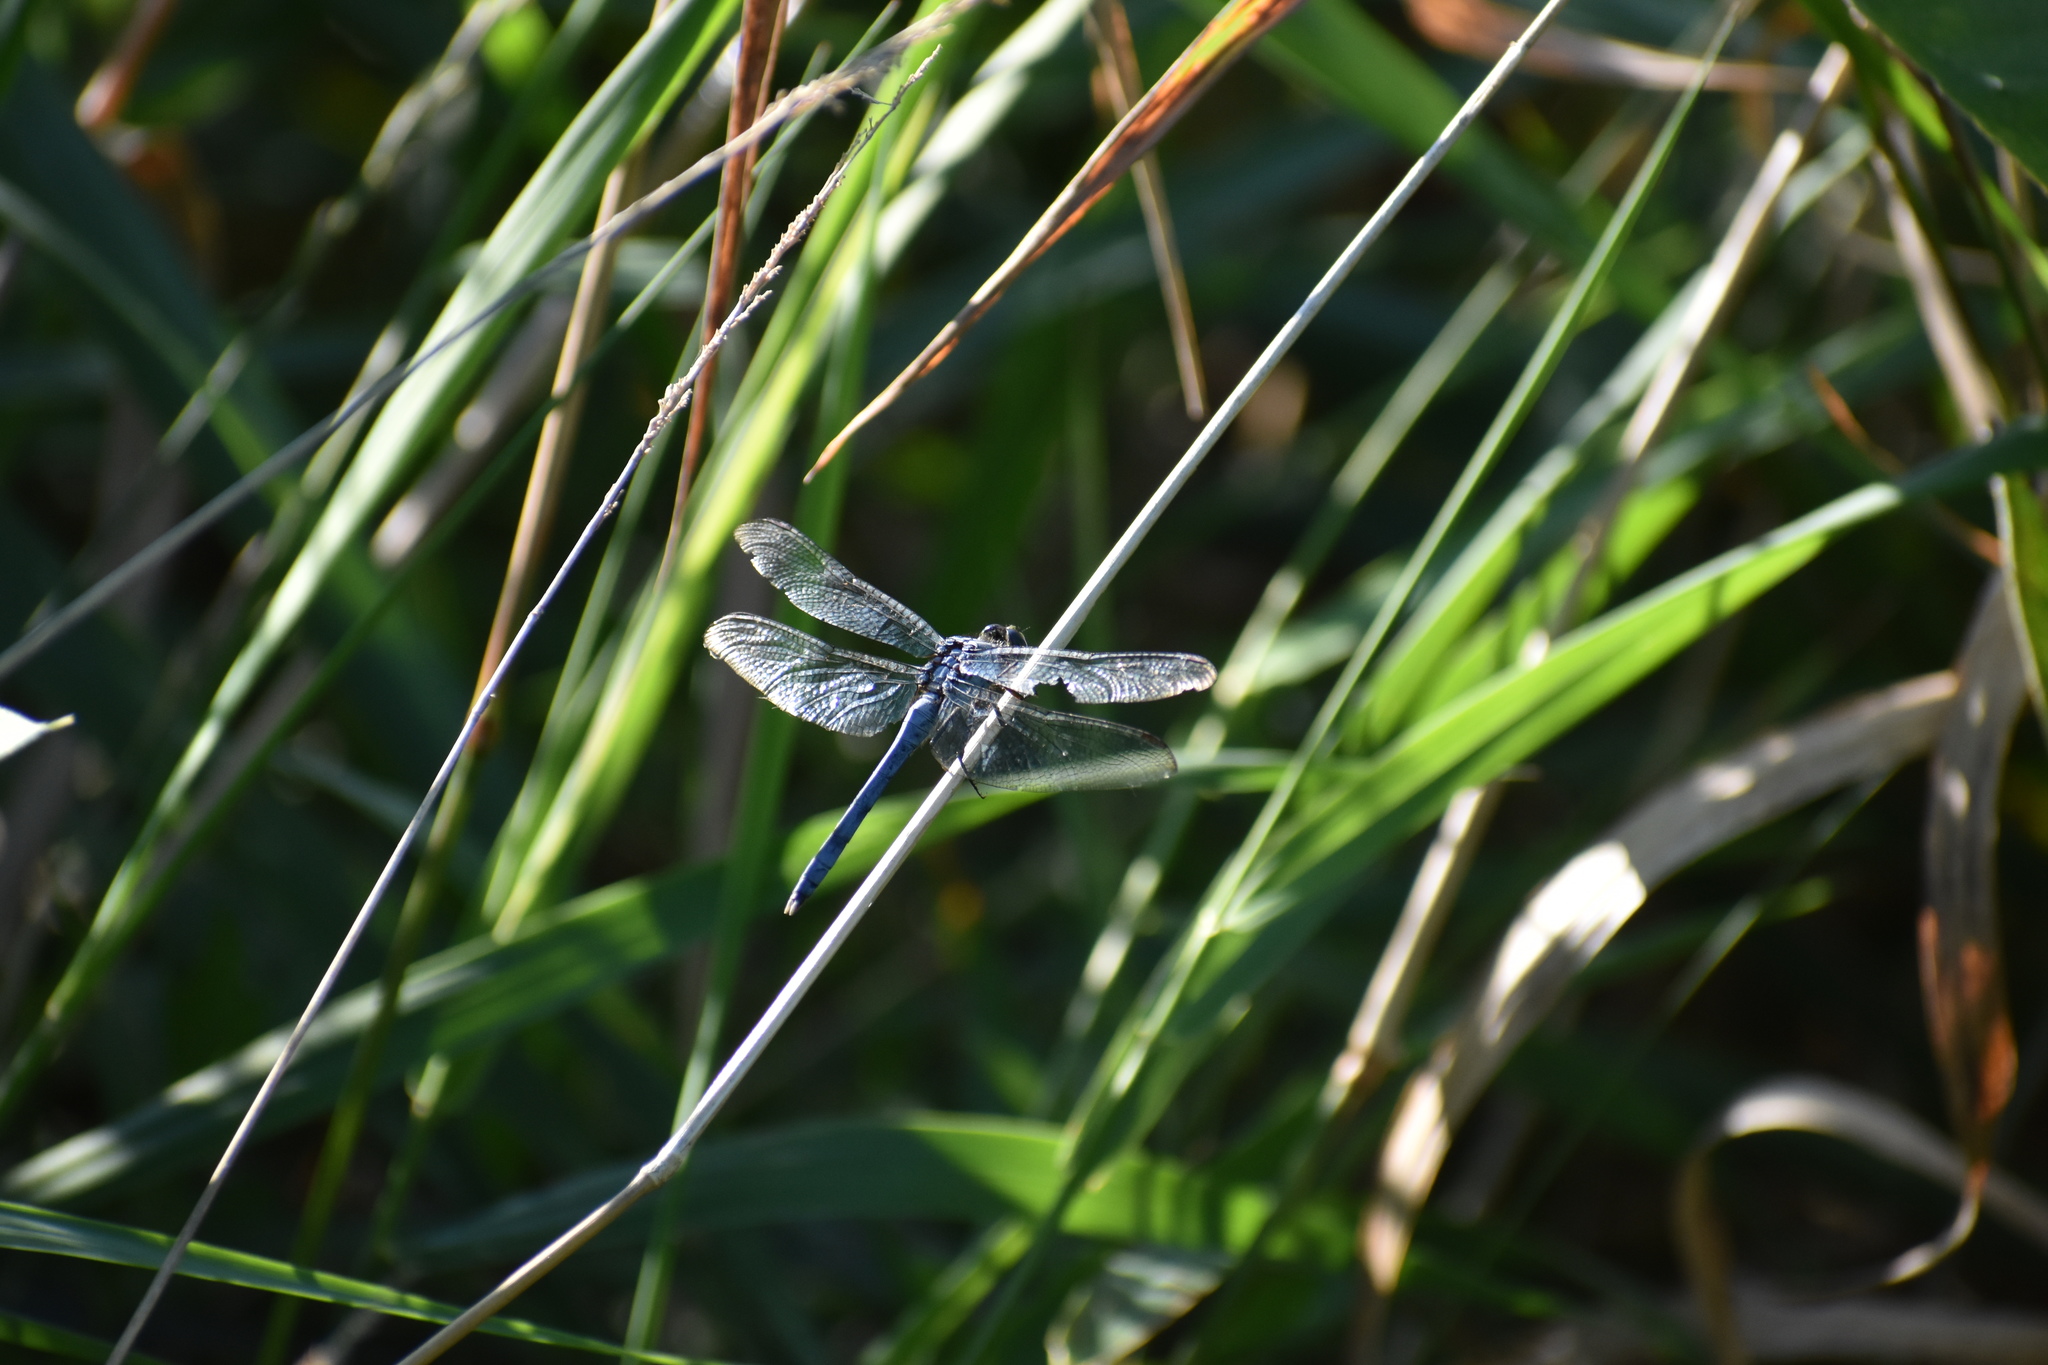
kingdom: Animalia
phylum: Arthropoda
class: Insecta
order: Odonata
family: Libellulidae
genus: Erythemis
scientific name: Erythemis simplicicollis
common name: Eastern pondhawk
